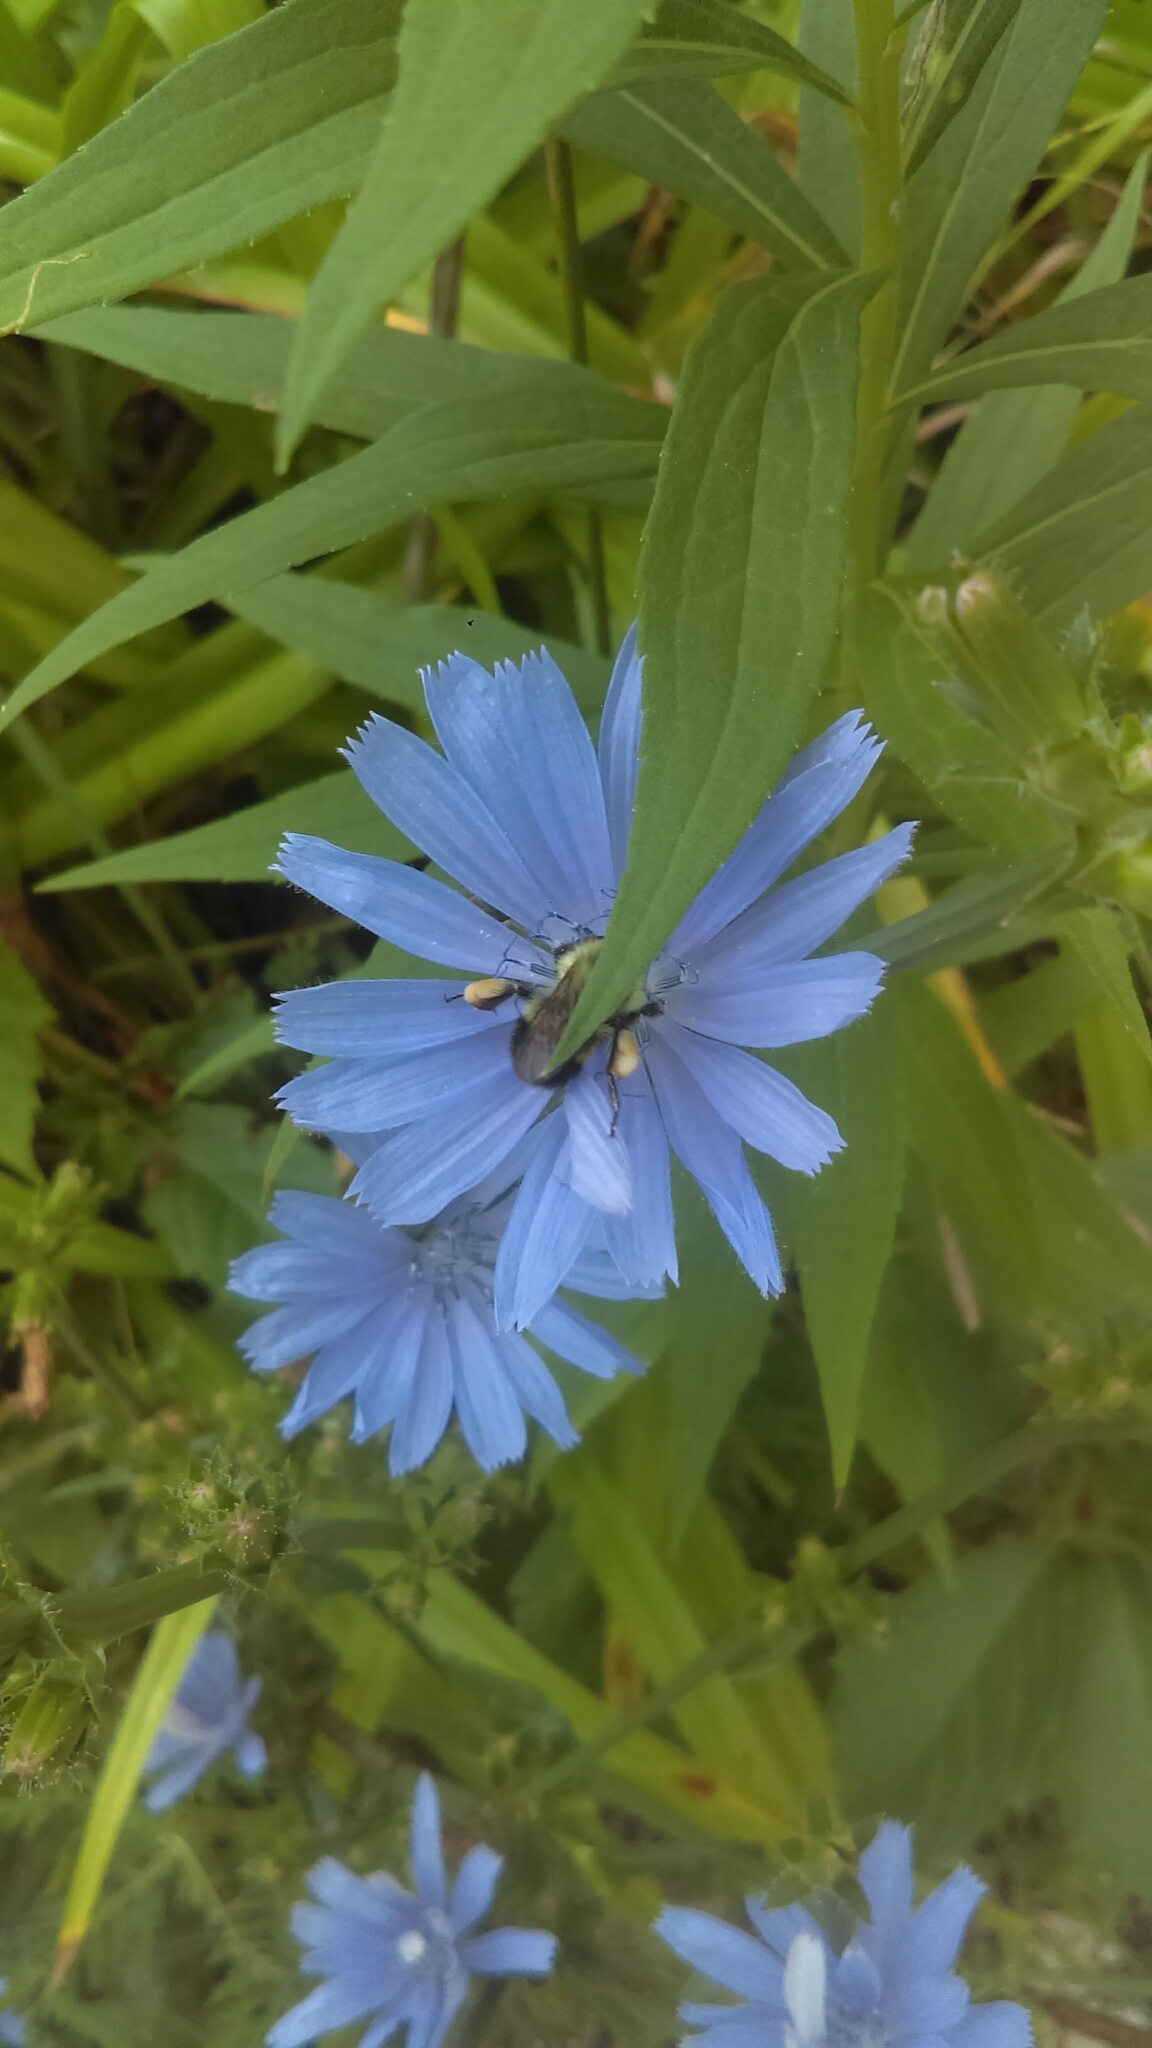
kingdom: Plantae
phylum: Tracheophyta
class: Magnoliopsida
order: Asterales
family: Asteraceae
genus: Cichorium
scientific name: Cichorium intybus
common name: Chicory
